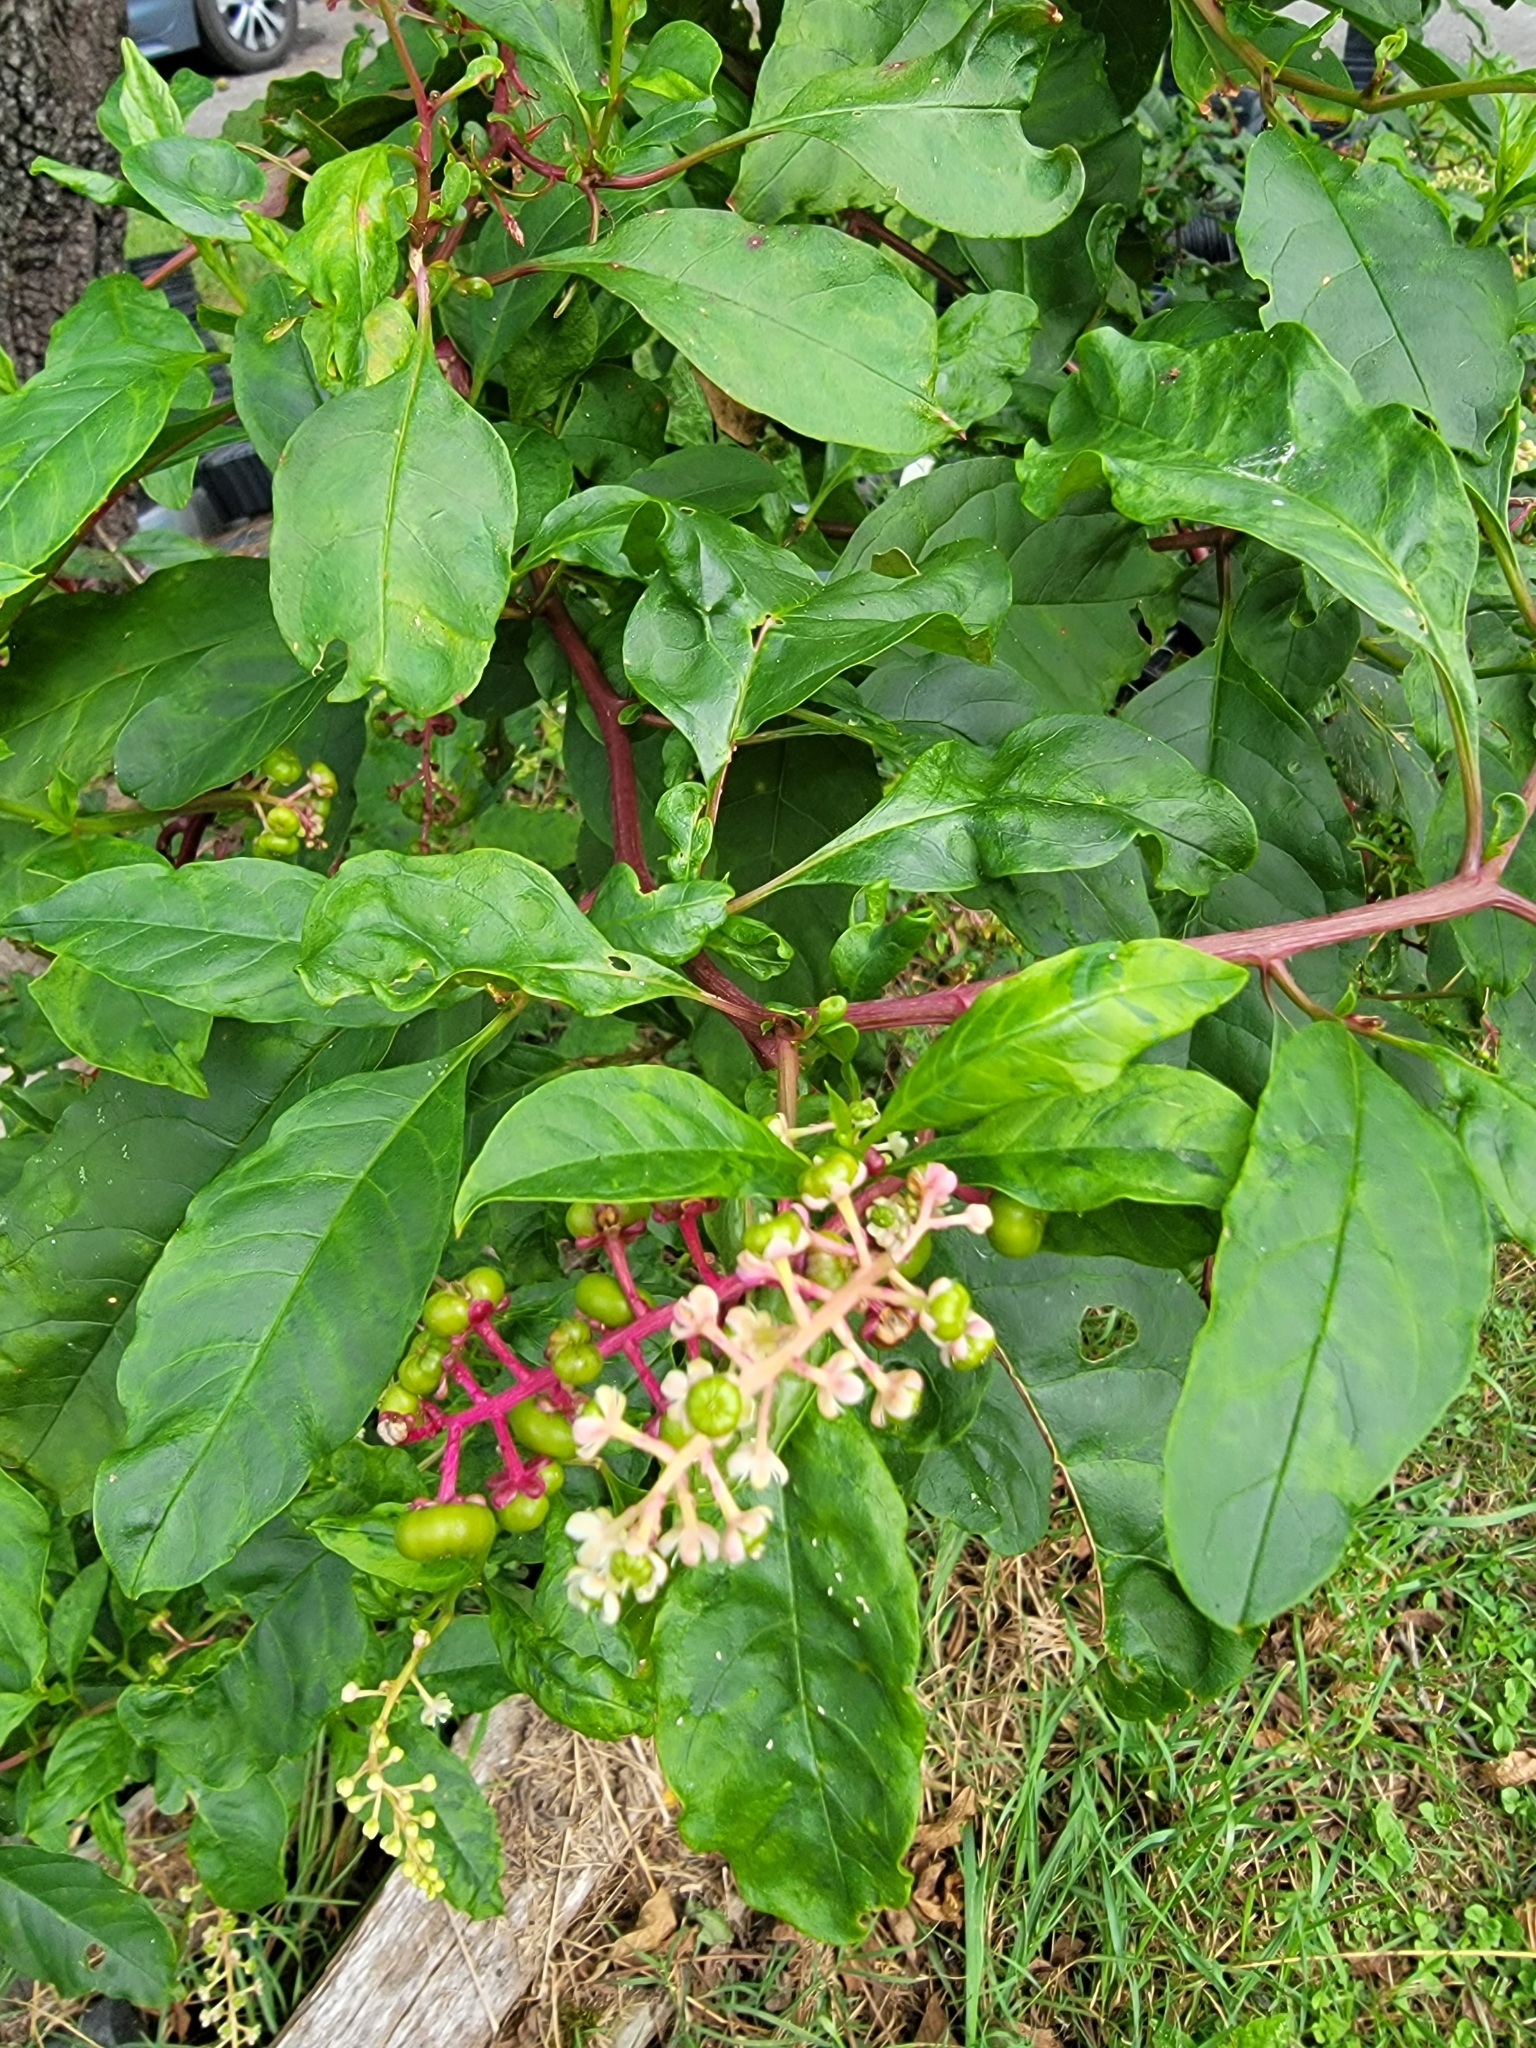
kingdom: Plantae
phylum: Tracheophyta
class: Magnoliopsida
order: Caryophyllales
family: Phytolaccaceae
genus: Phytolacca
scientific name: Phytolacca americana
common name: American pokeweed
